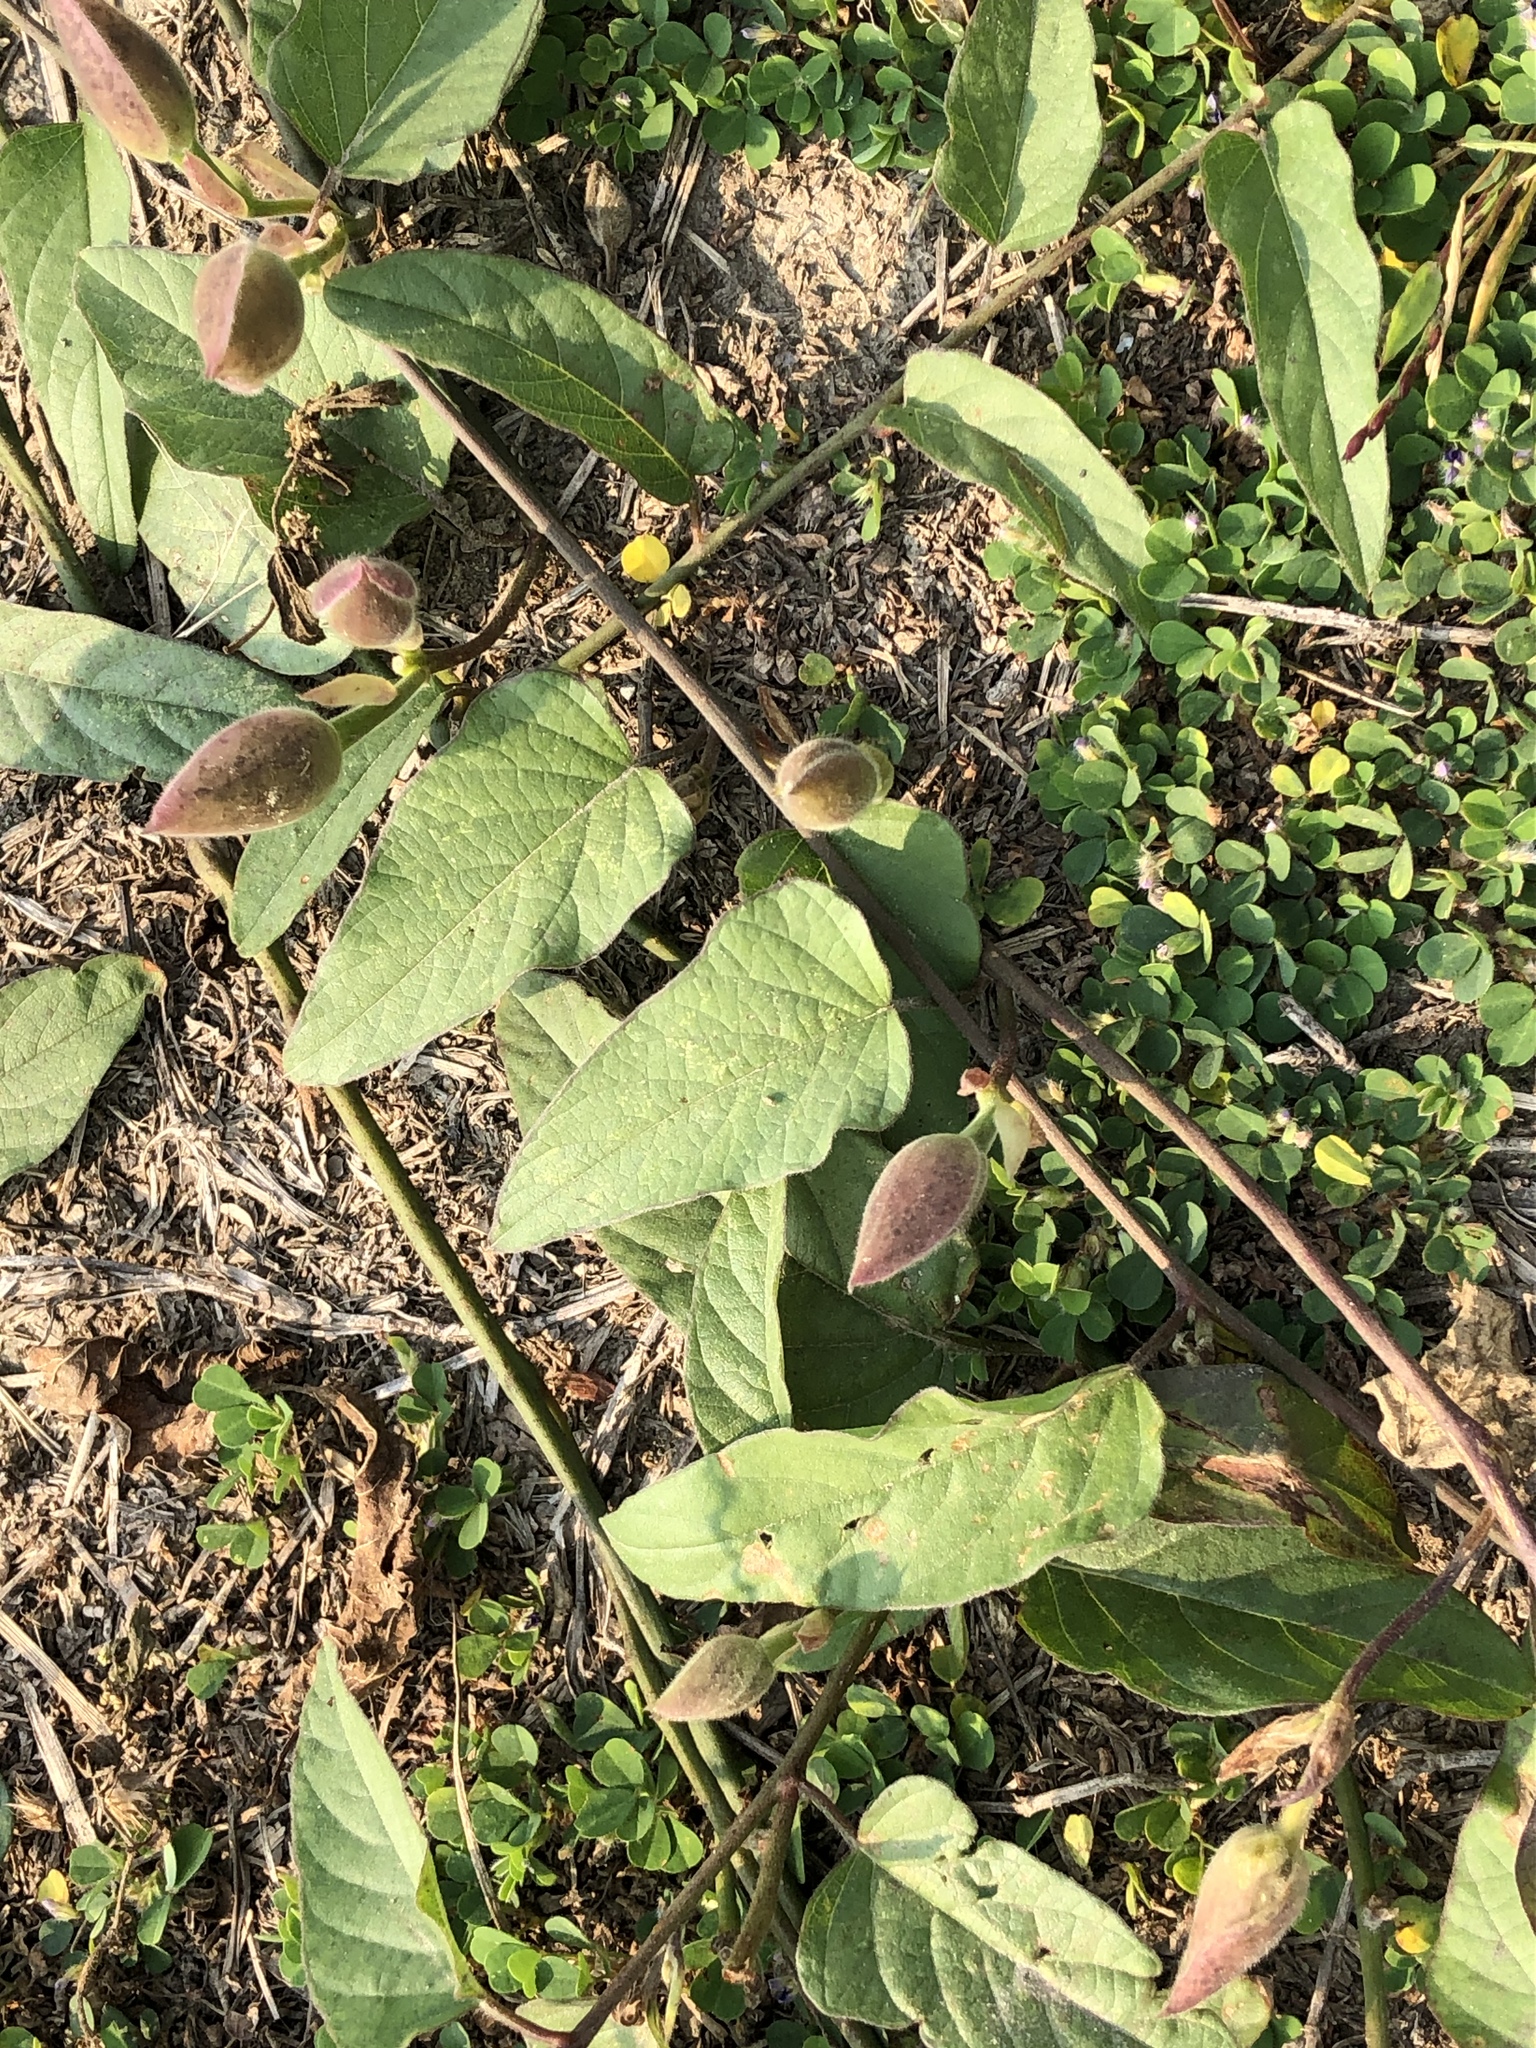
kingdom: Plantae
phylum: Tracheophyta
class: Magnoliopsida
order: Solanales
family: Convolvulaceae
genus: Operculina
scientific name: Operculina turpethum
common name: Transparent wood-rose
